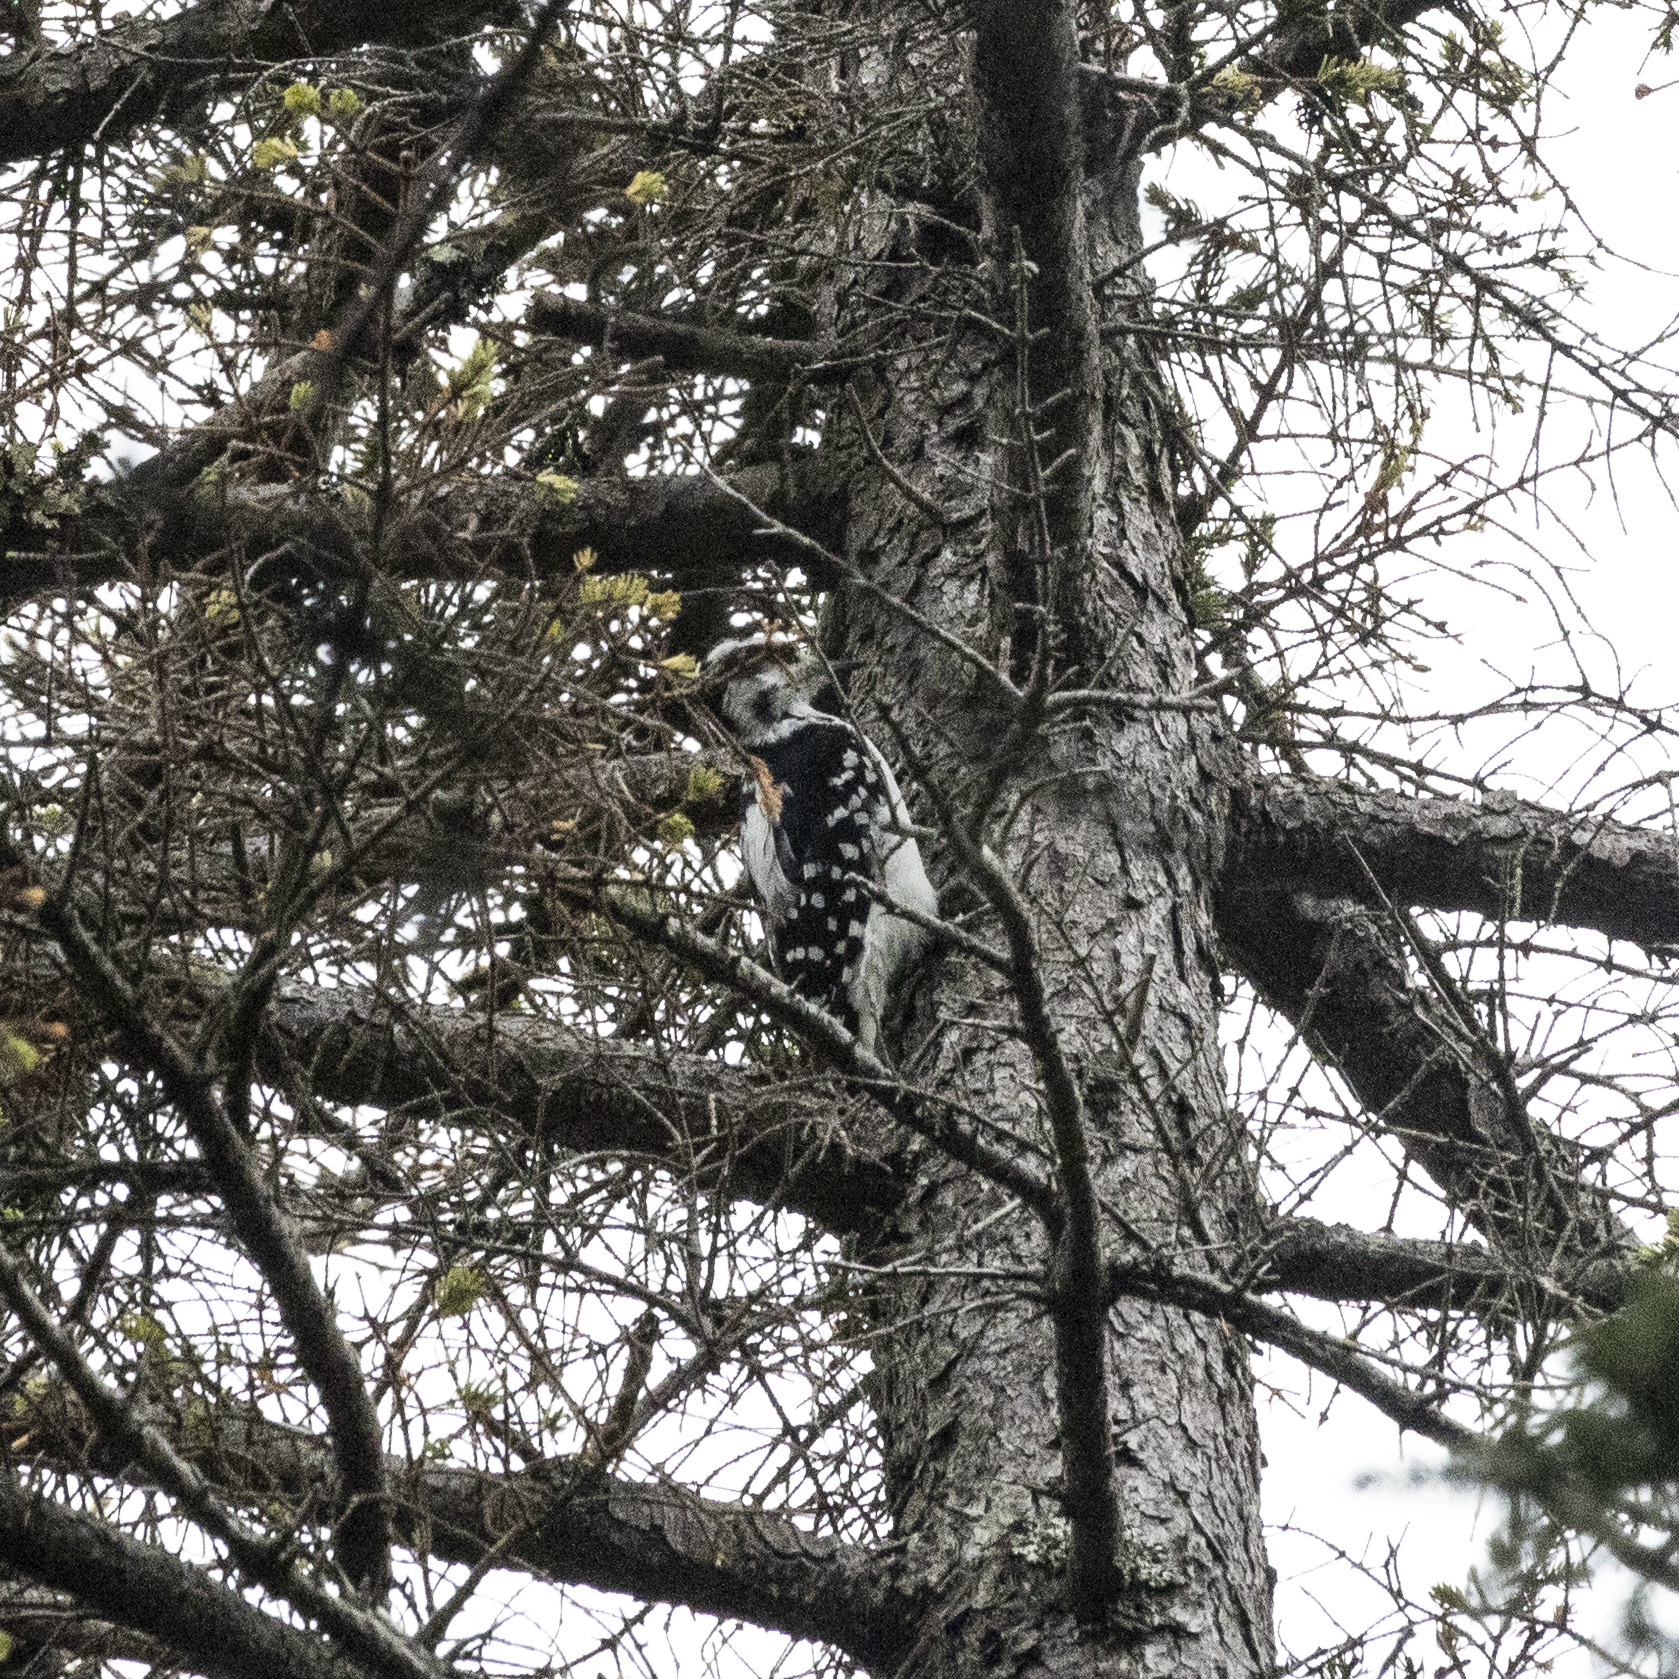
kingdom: Animalia
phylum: Chordata
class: Aves
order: Piciformes
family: Picidae
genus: Leuconotopicus
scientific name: Leuconotopicus villosus
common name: Hairy woodpecker
